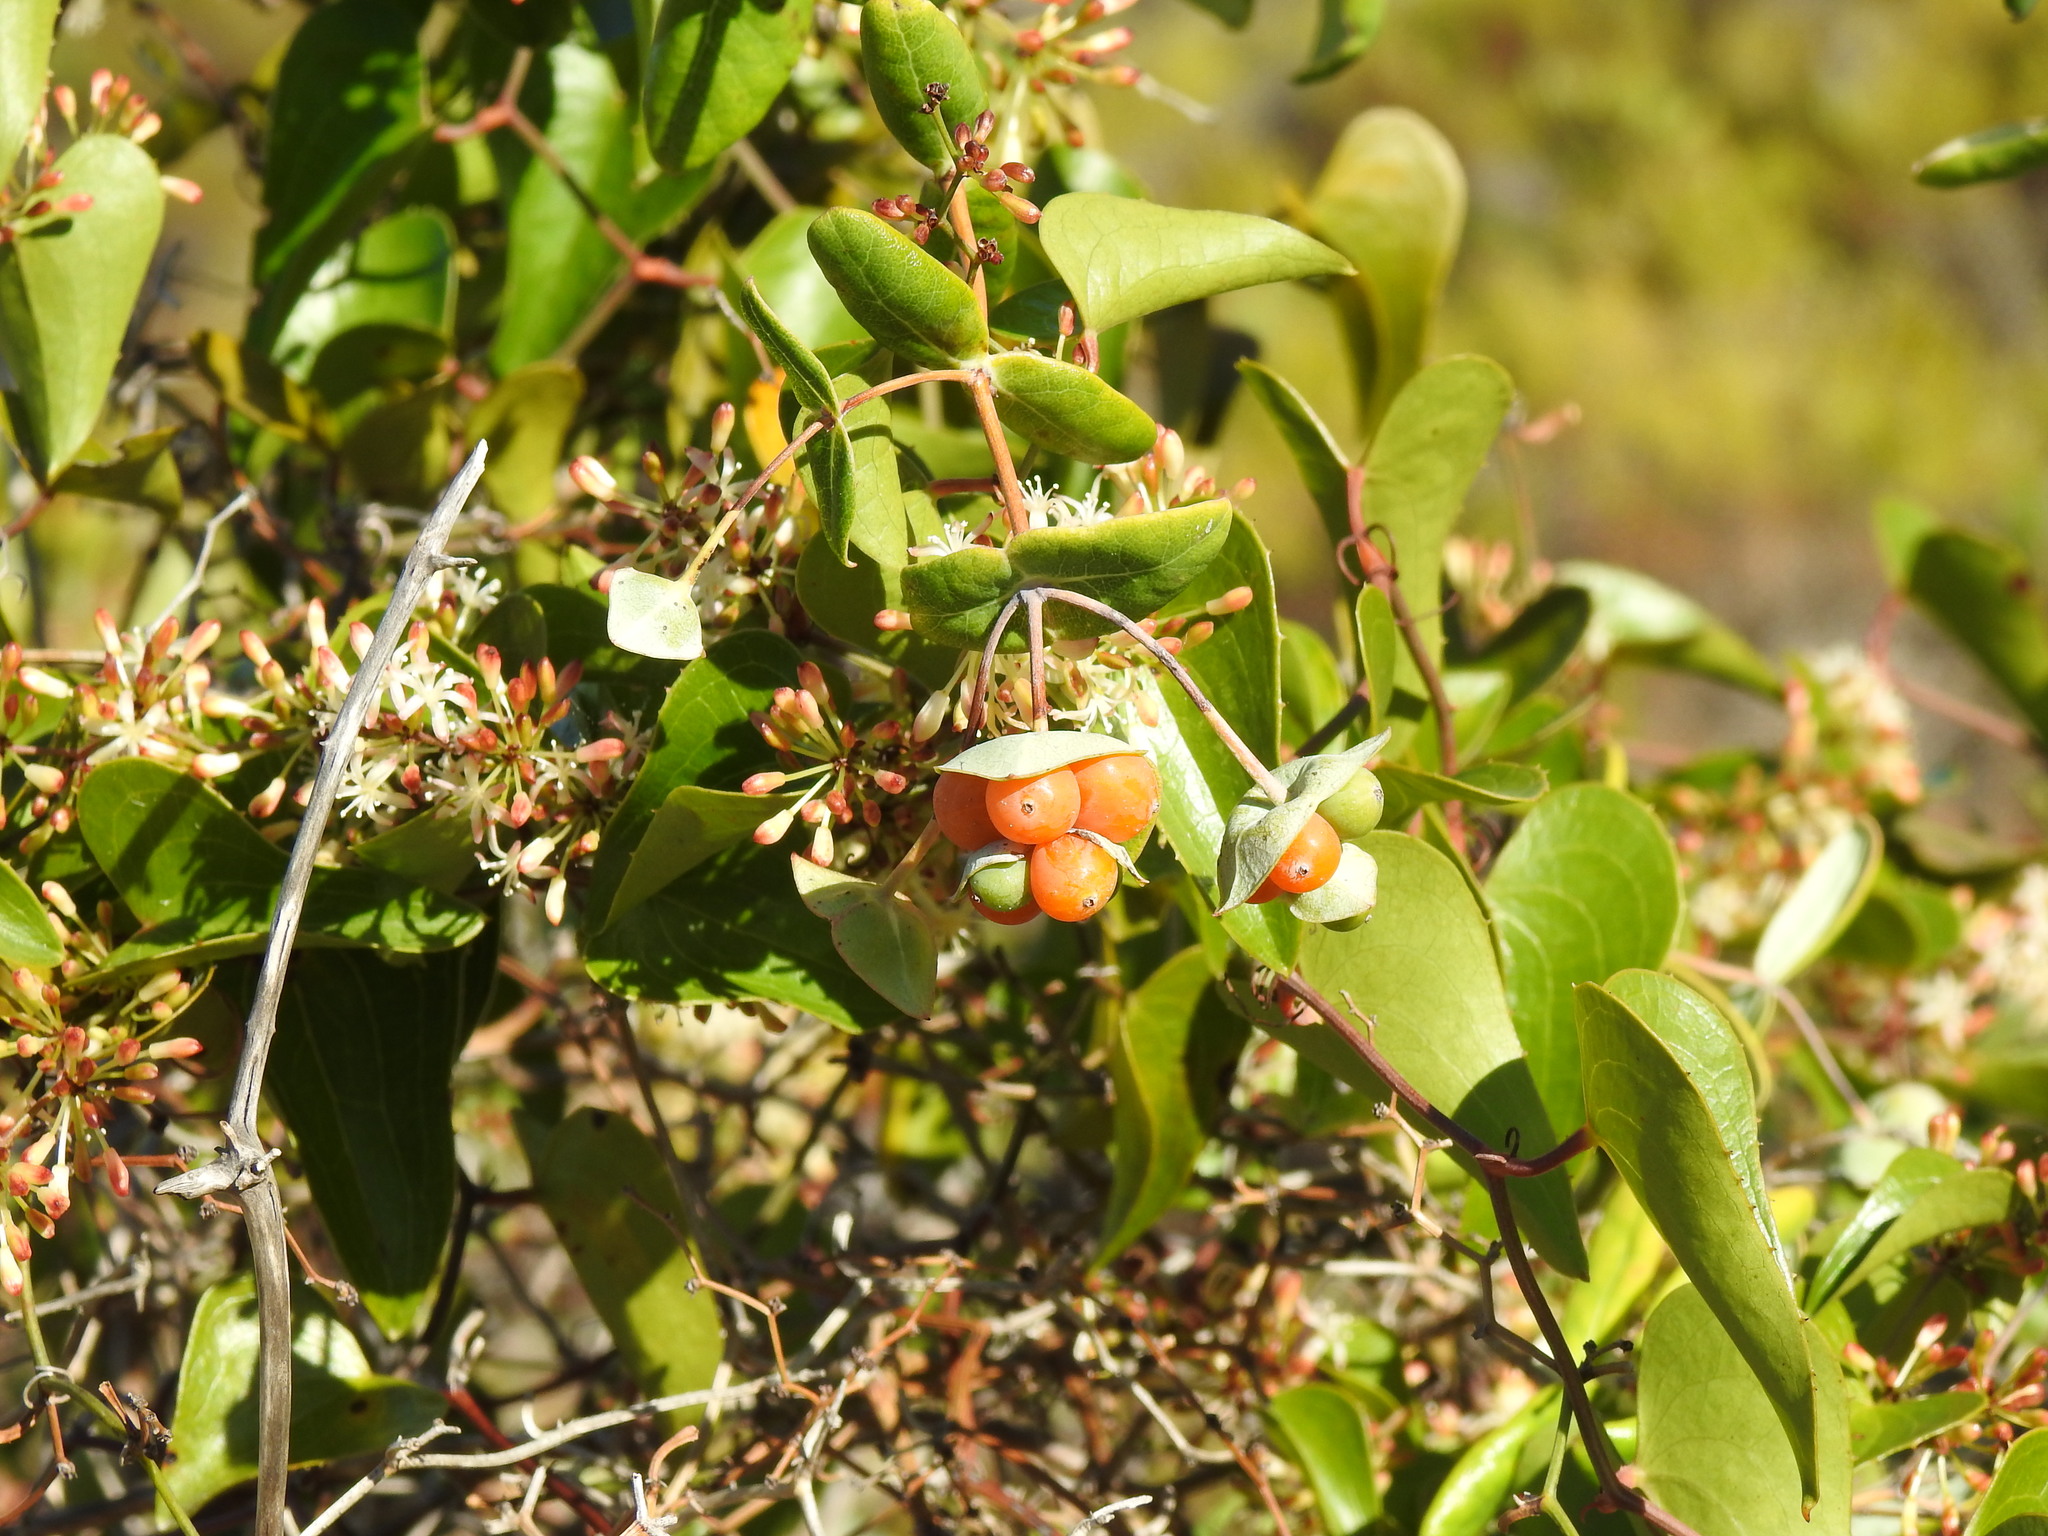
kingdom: Plantae
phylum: Tracheophyta
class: Magnoliopsida
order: Dipsacales
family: Caprifoliaceae
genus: Lonicera
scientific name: Lonicera implexa
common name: Minorca honeysuckle
